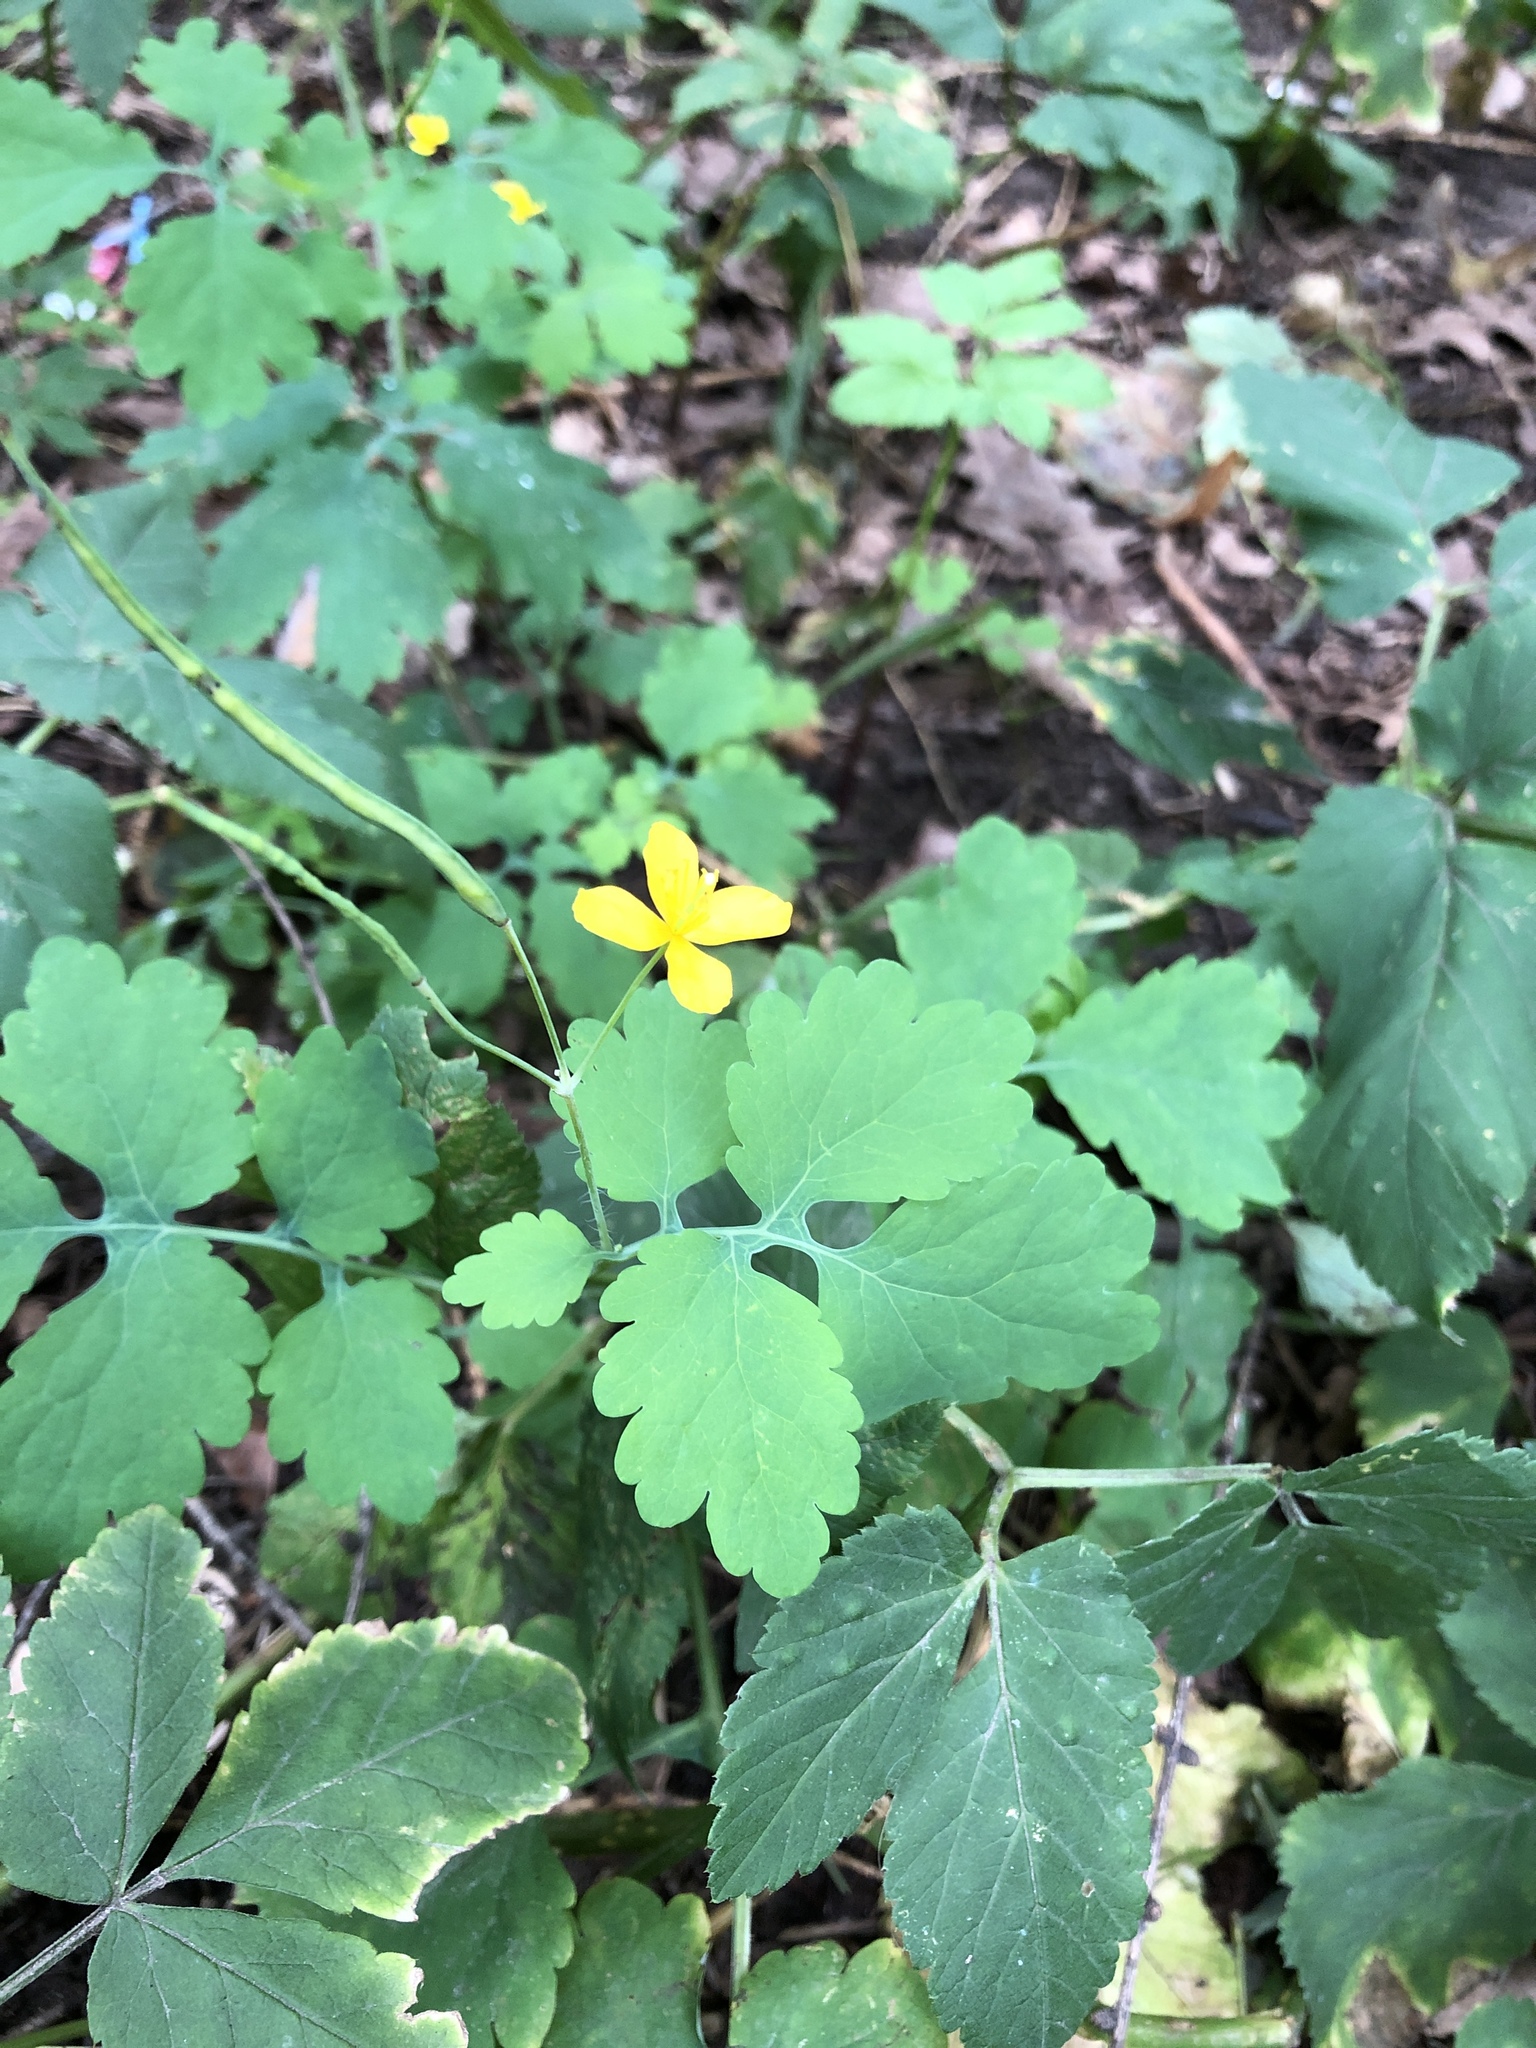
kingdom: Plantae
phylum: Tracheophyta
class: Magnoliopsida
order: Ranunculales
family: Papaveraceae
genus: Chelidonium
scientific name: Chelidonium majus
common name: Greater celandine
